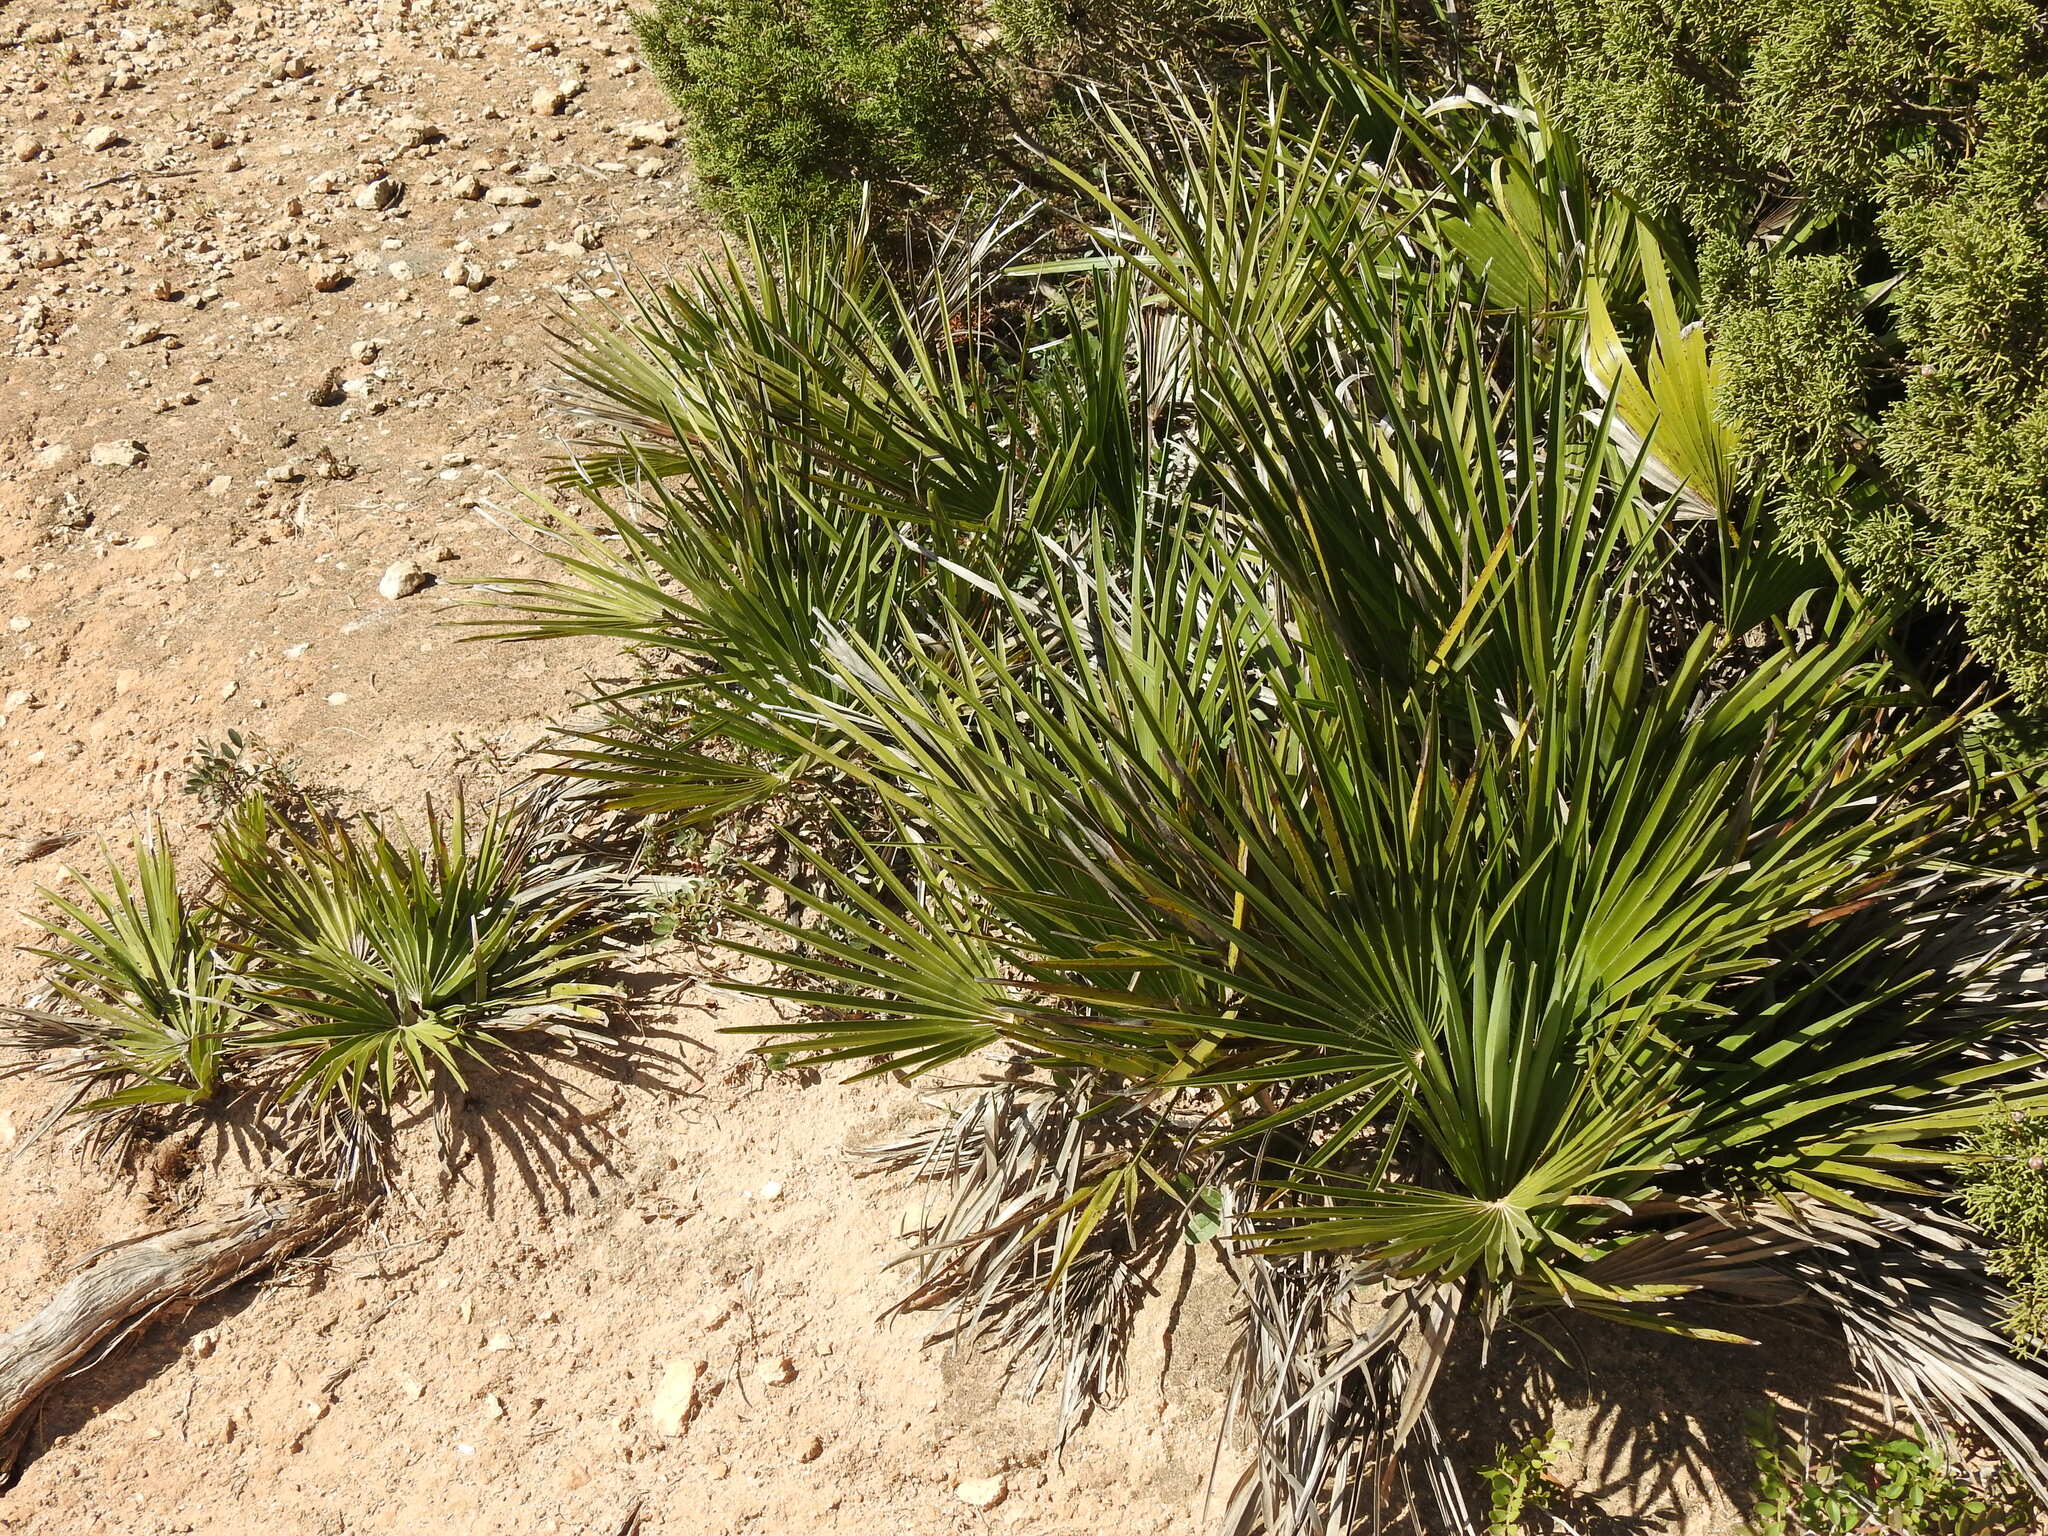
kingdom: Plantae
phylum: Tracheophyta
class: Liliopsida
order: Arecales
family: Arecaceae
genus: Chamaerops
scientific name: Chamaerops humilis
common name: Dwarf fan palm
